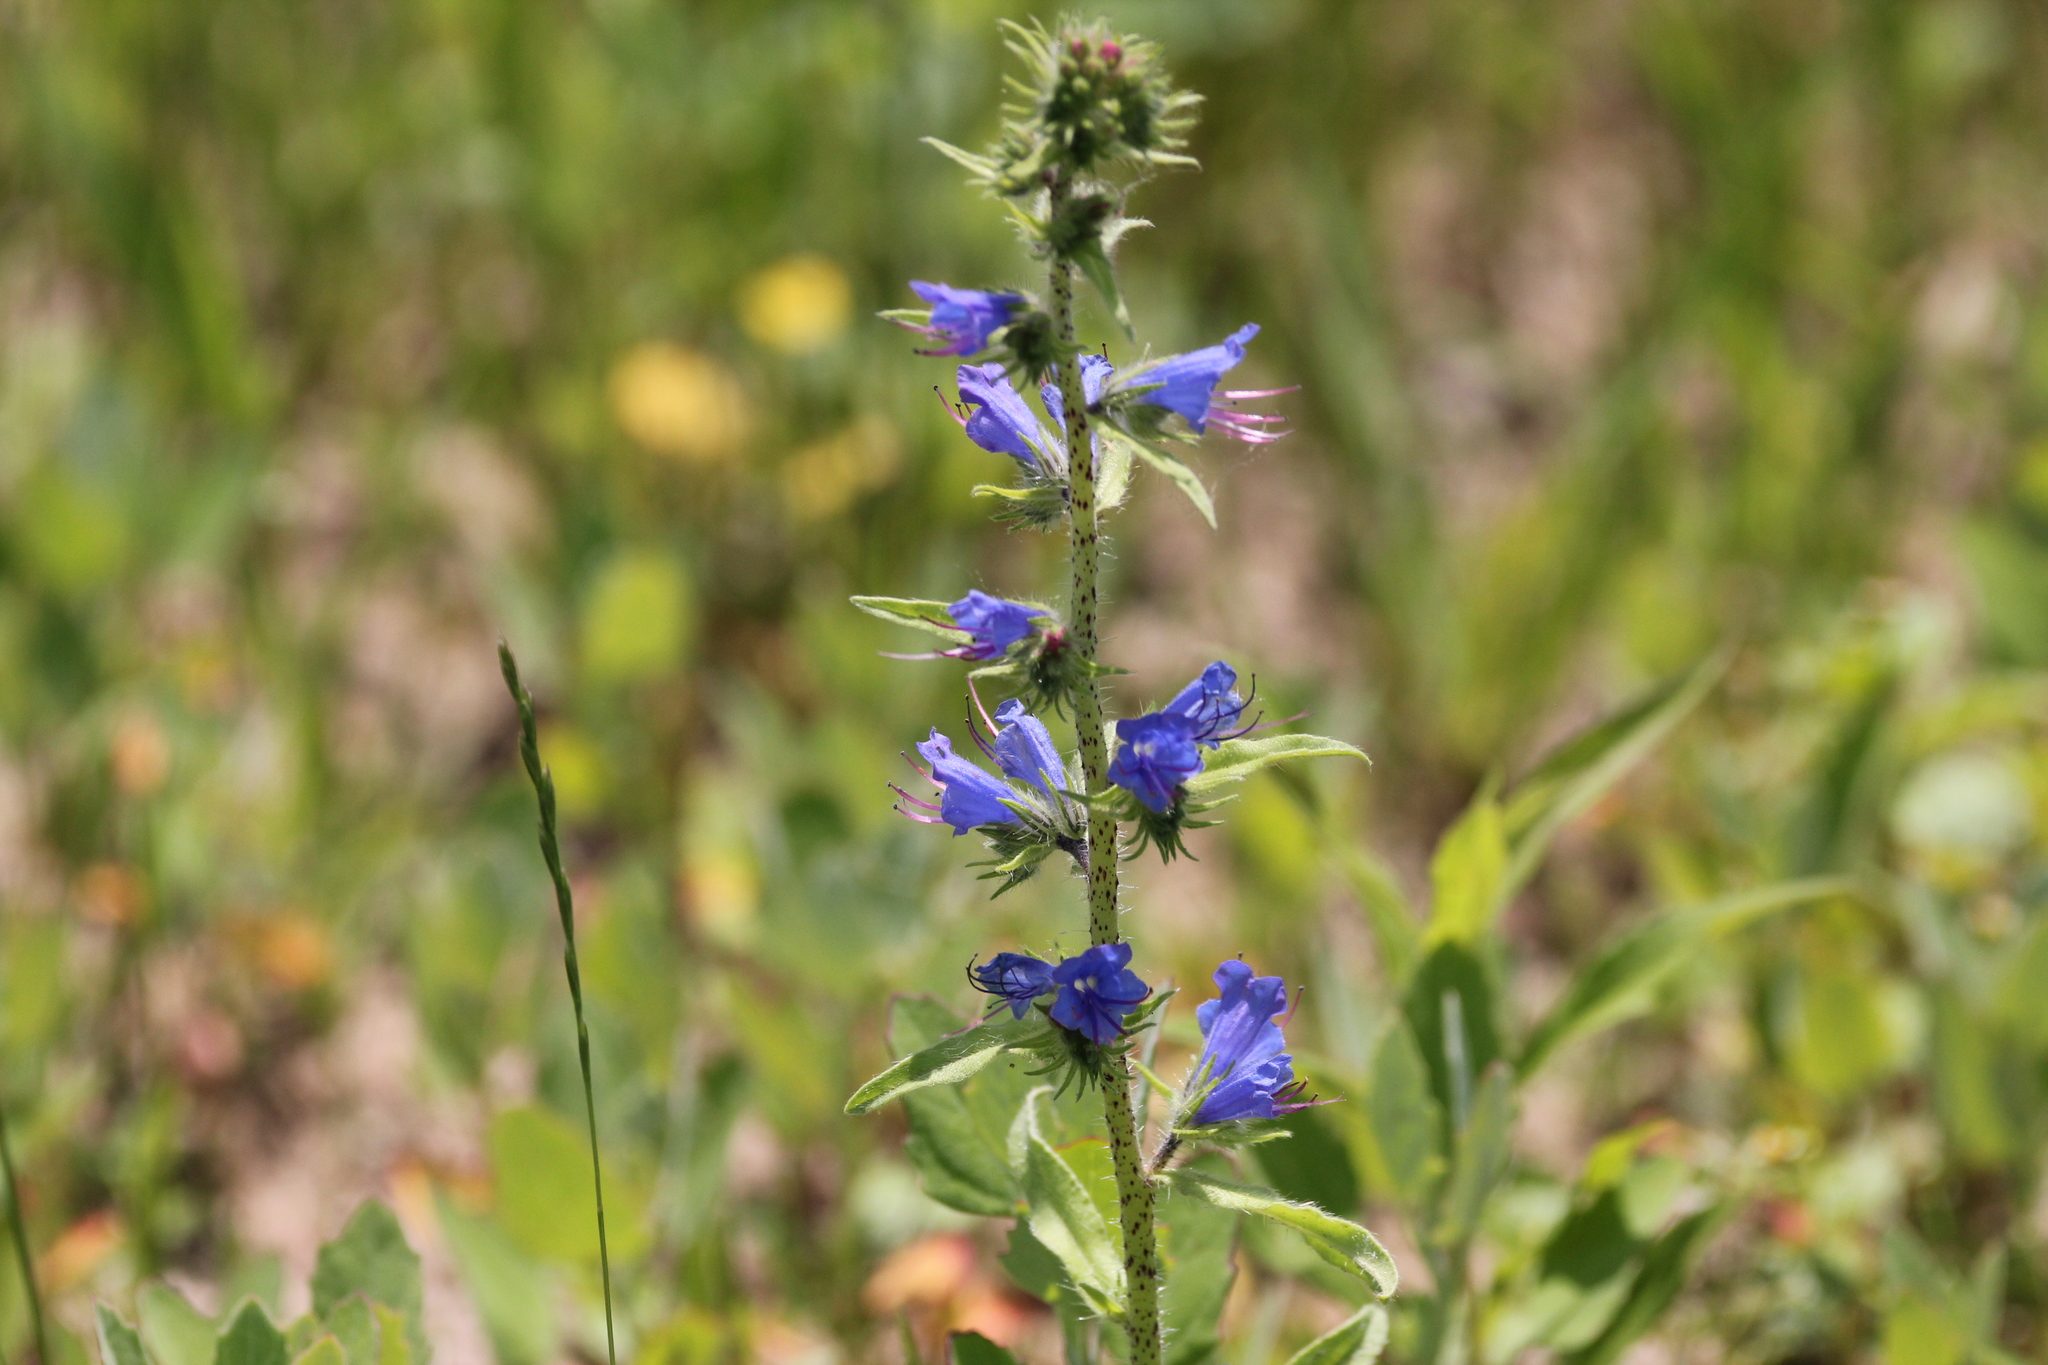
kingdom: Plantae
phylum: Tracheophyta
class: Magnoliopsida
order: Boraginales
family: Boraginaceae
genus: Echium
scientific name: Echium vulgare
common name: Common viper's bugloss
